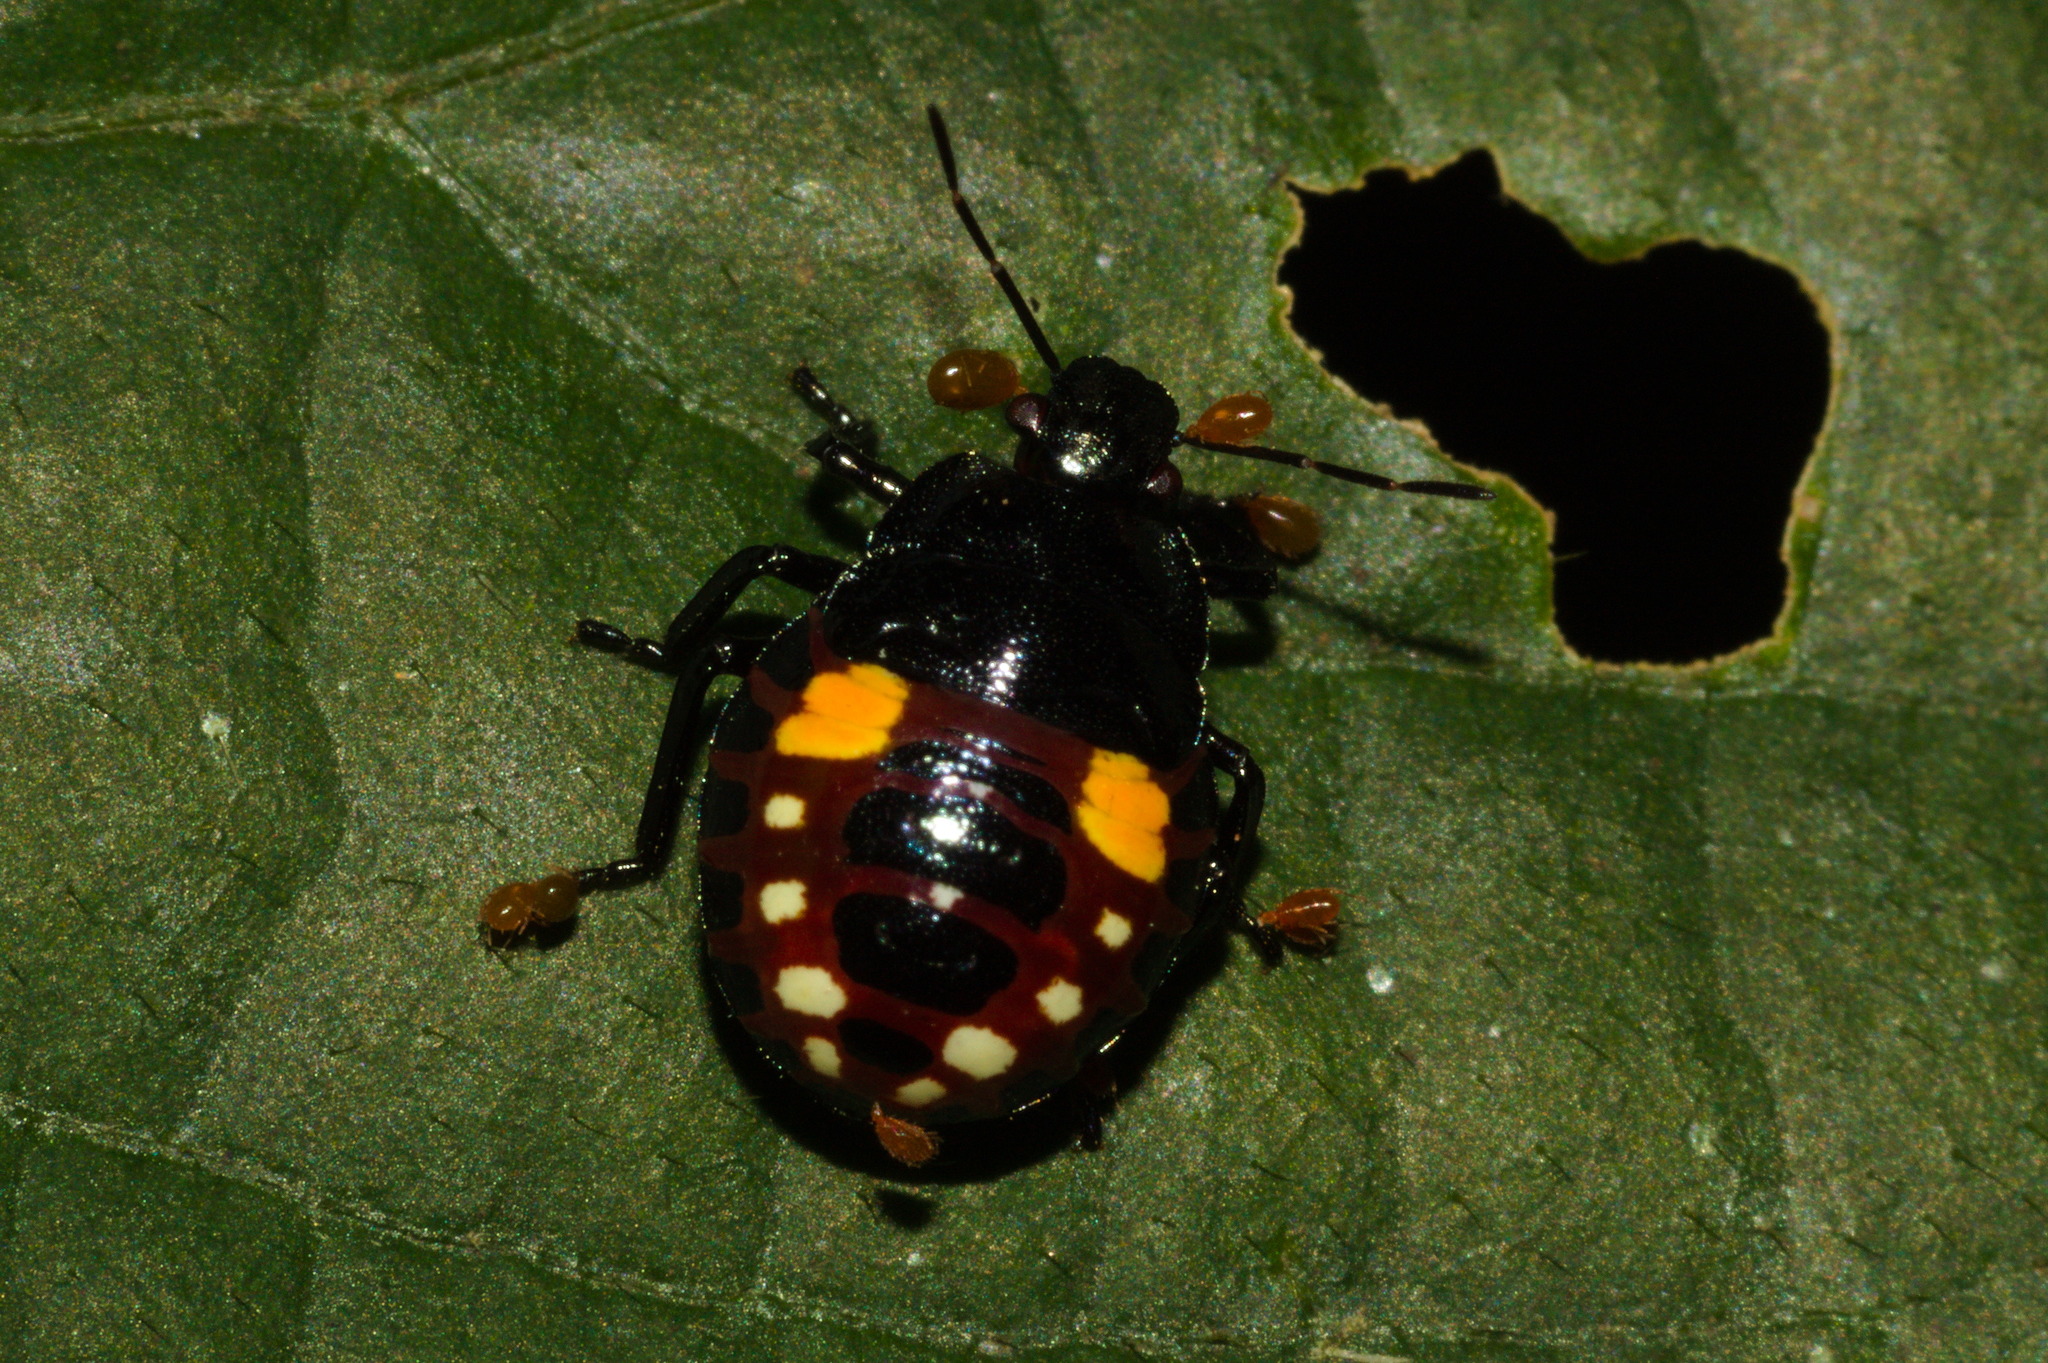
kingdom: Animalia
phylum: Arthropoda
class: Insecta
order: Hemiptera
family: Pentatomidae
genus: Podisus
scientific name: Podisus fuscescens
